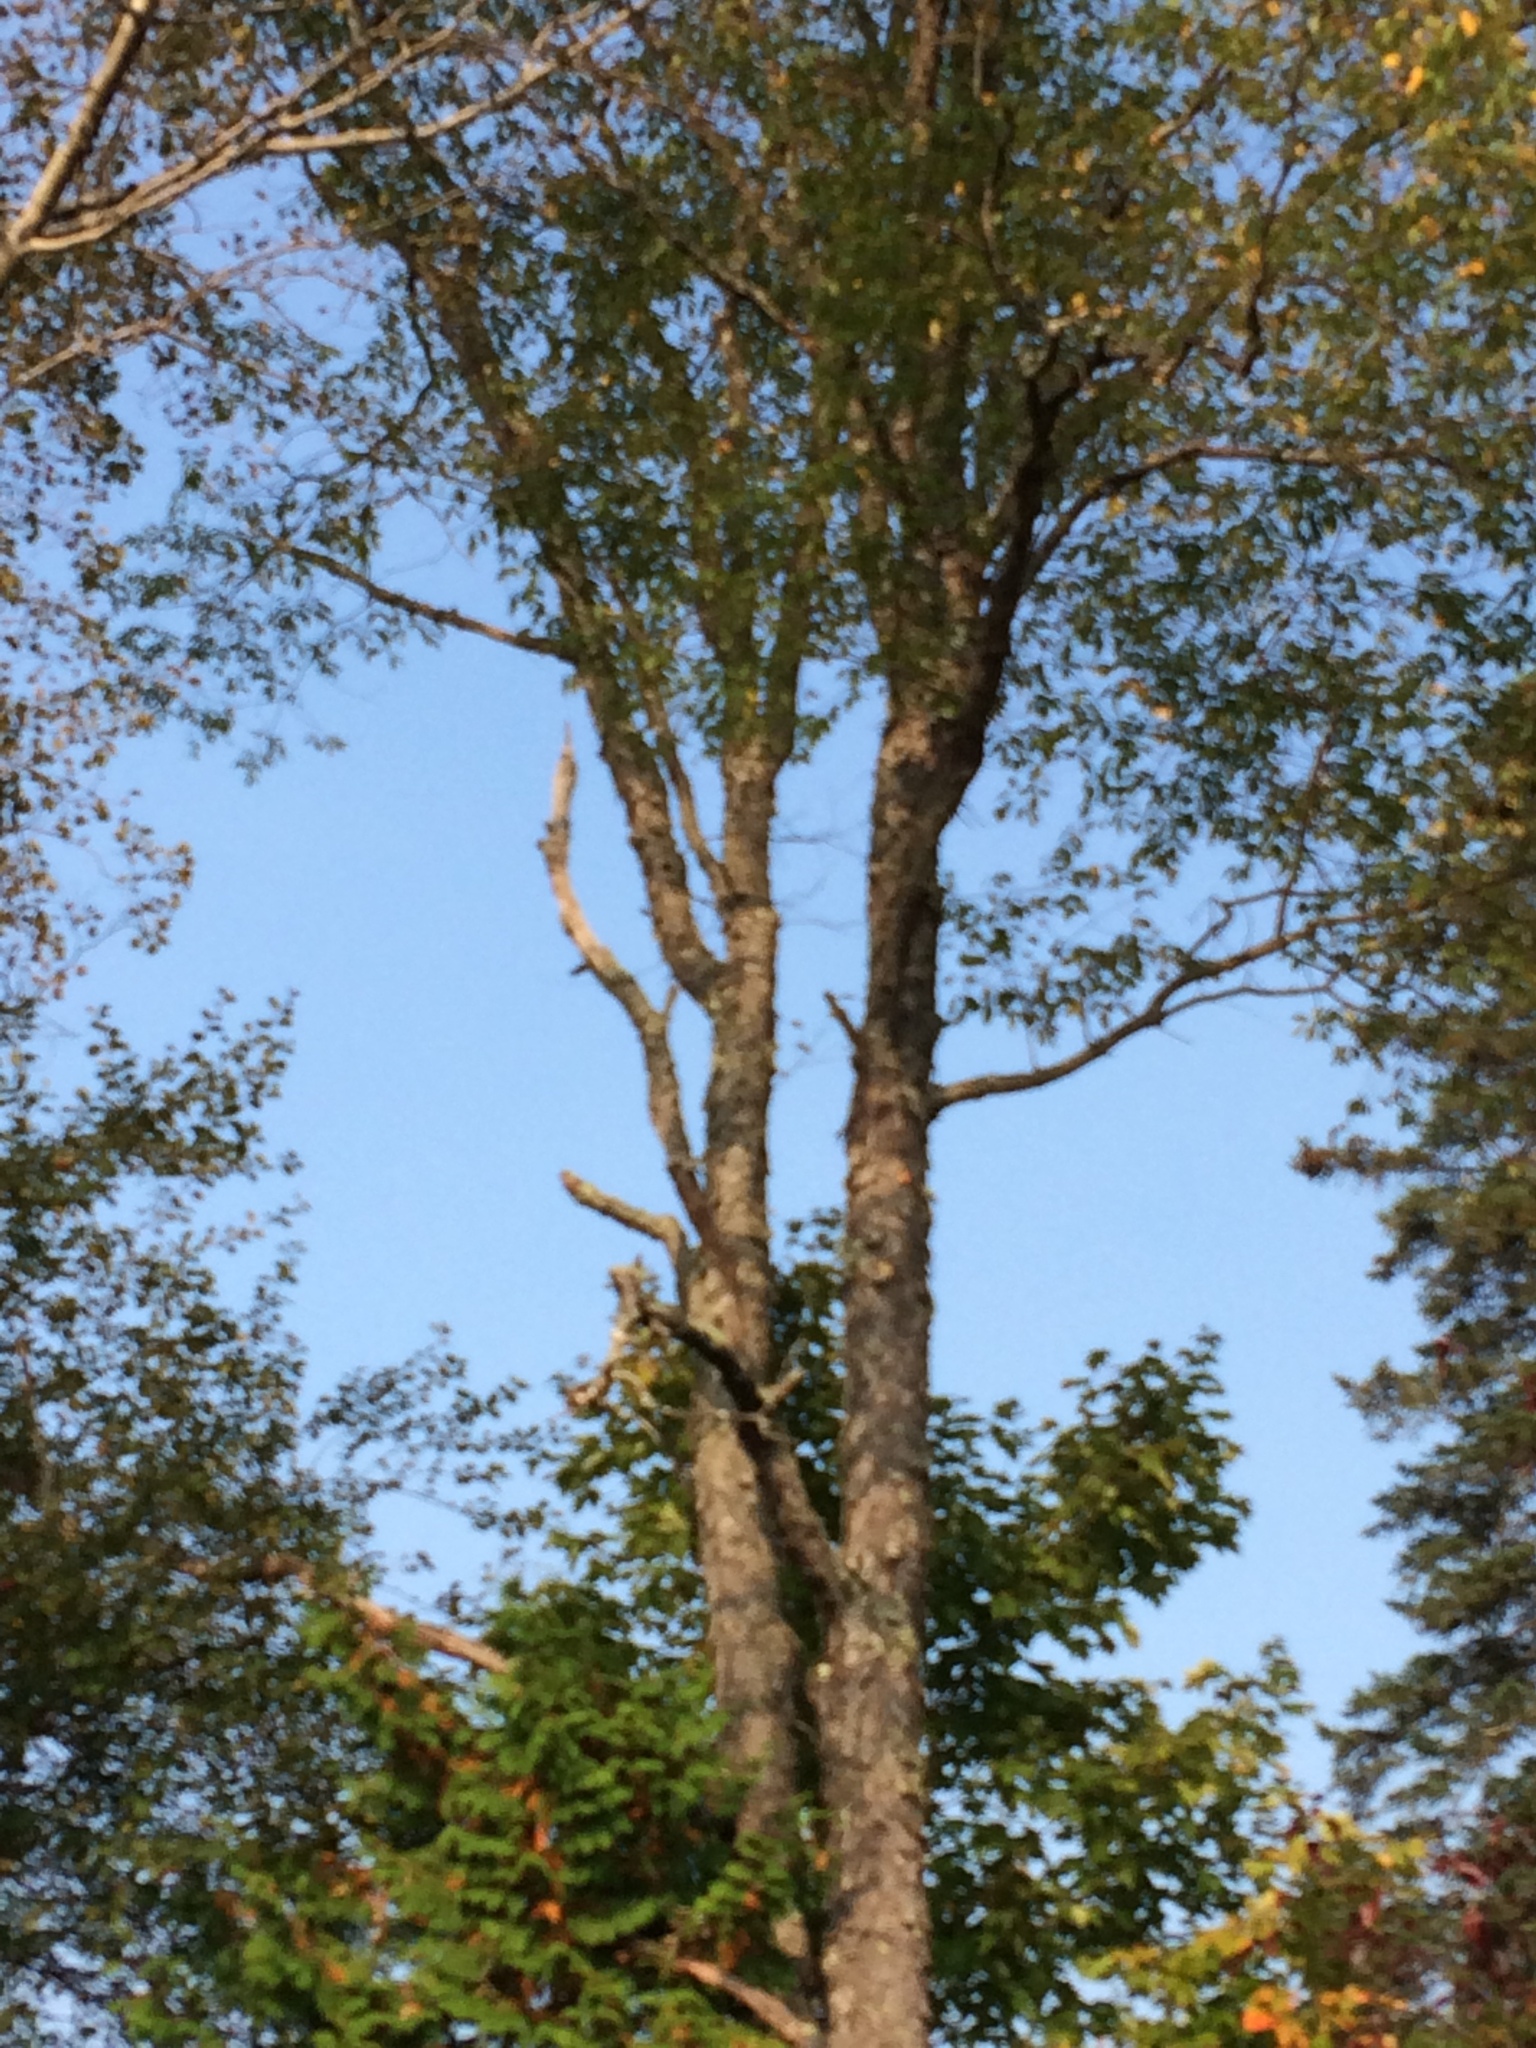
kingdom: Plantae
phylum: Tracheophyta
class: Magnoliopsida
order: Rosales
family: Rosaceae
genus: Prunus
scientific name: Prunus serotina
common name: Black cherry
